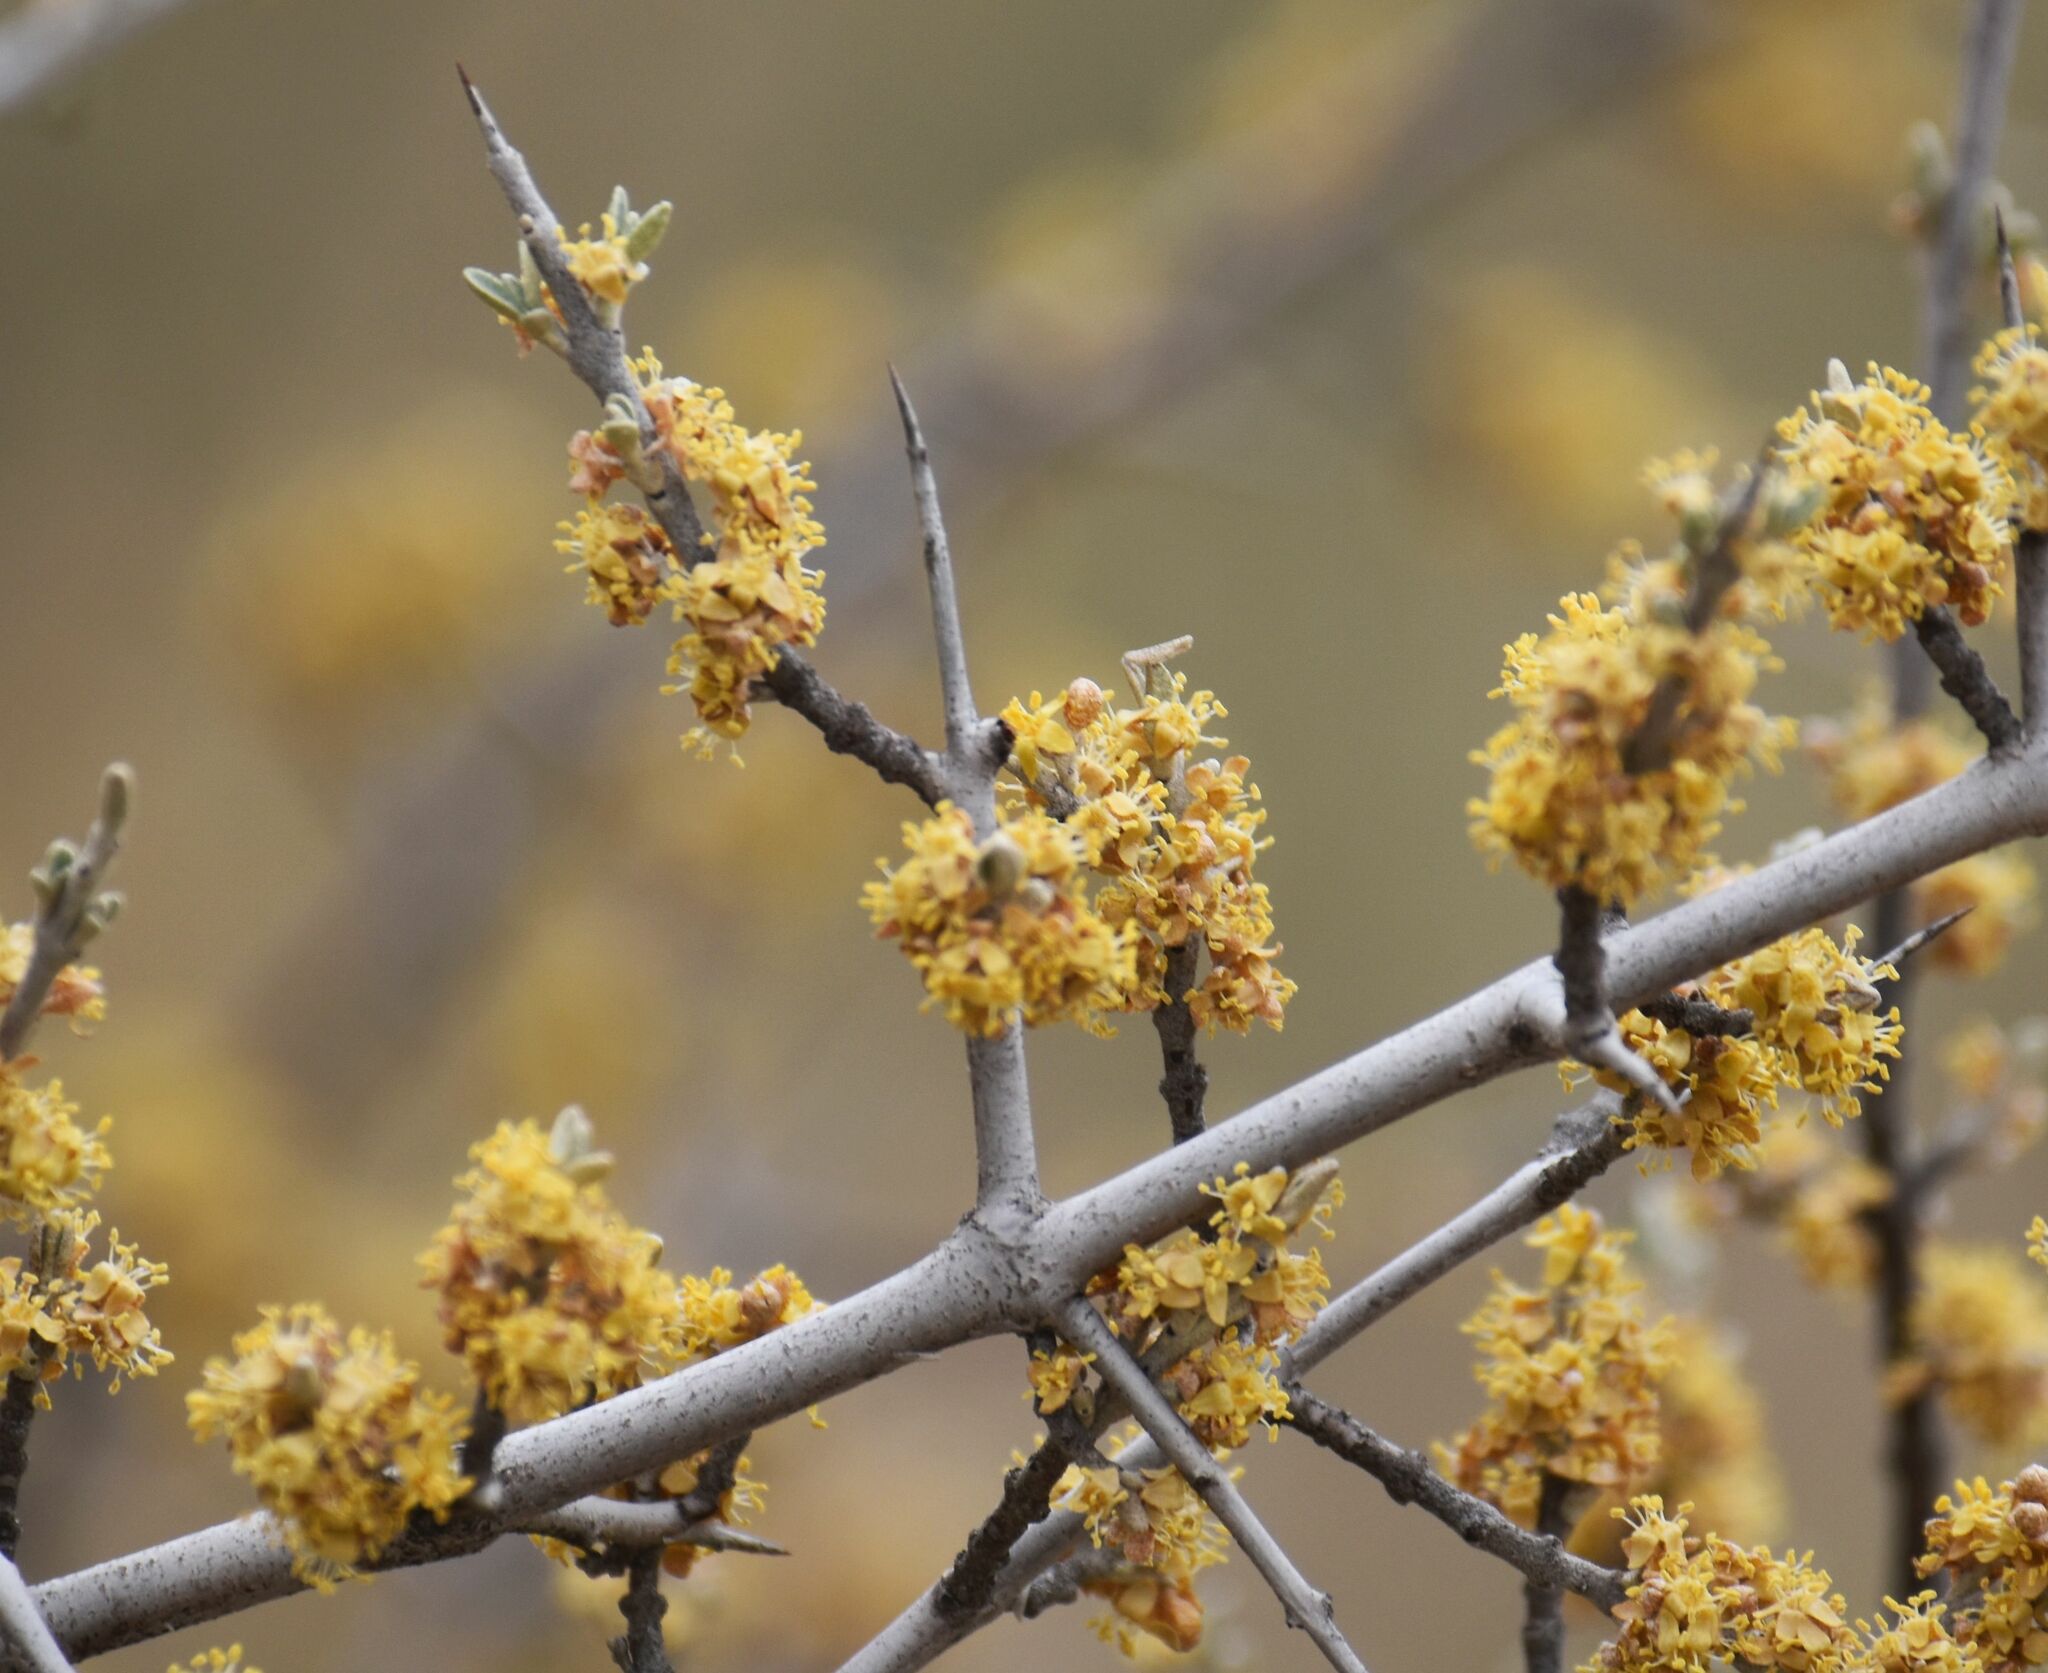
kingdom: Plantae
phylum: Tracheophyta
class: Magnoliopsida
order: Rosales
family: Elaeagnaceae
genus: Shepherdia
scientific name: Shepherdia argentea
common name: Silver buffaloberry
